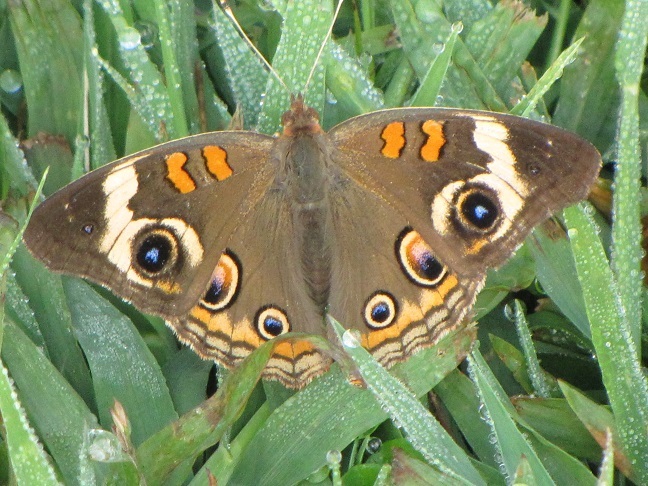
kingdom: Animalia
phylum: Arthropoda
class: Insecta
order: Lepidoptera
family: Nymphalidae
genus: Junonia
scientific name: Junonia coenia
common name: Common buckeye
